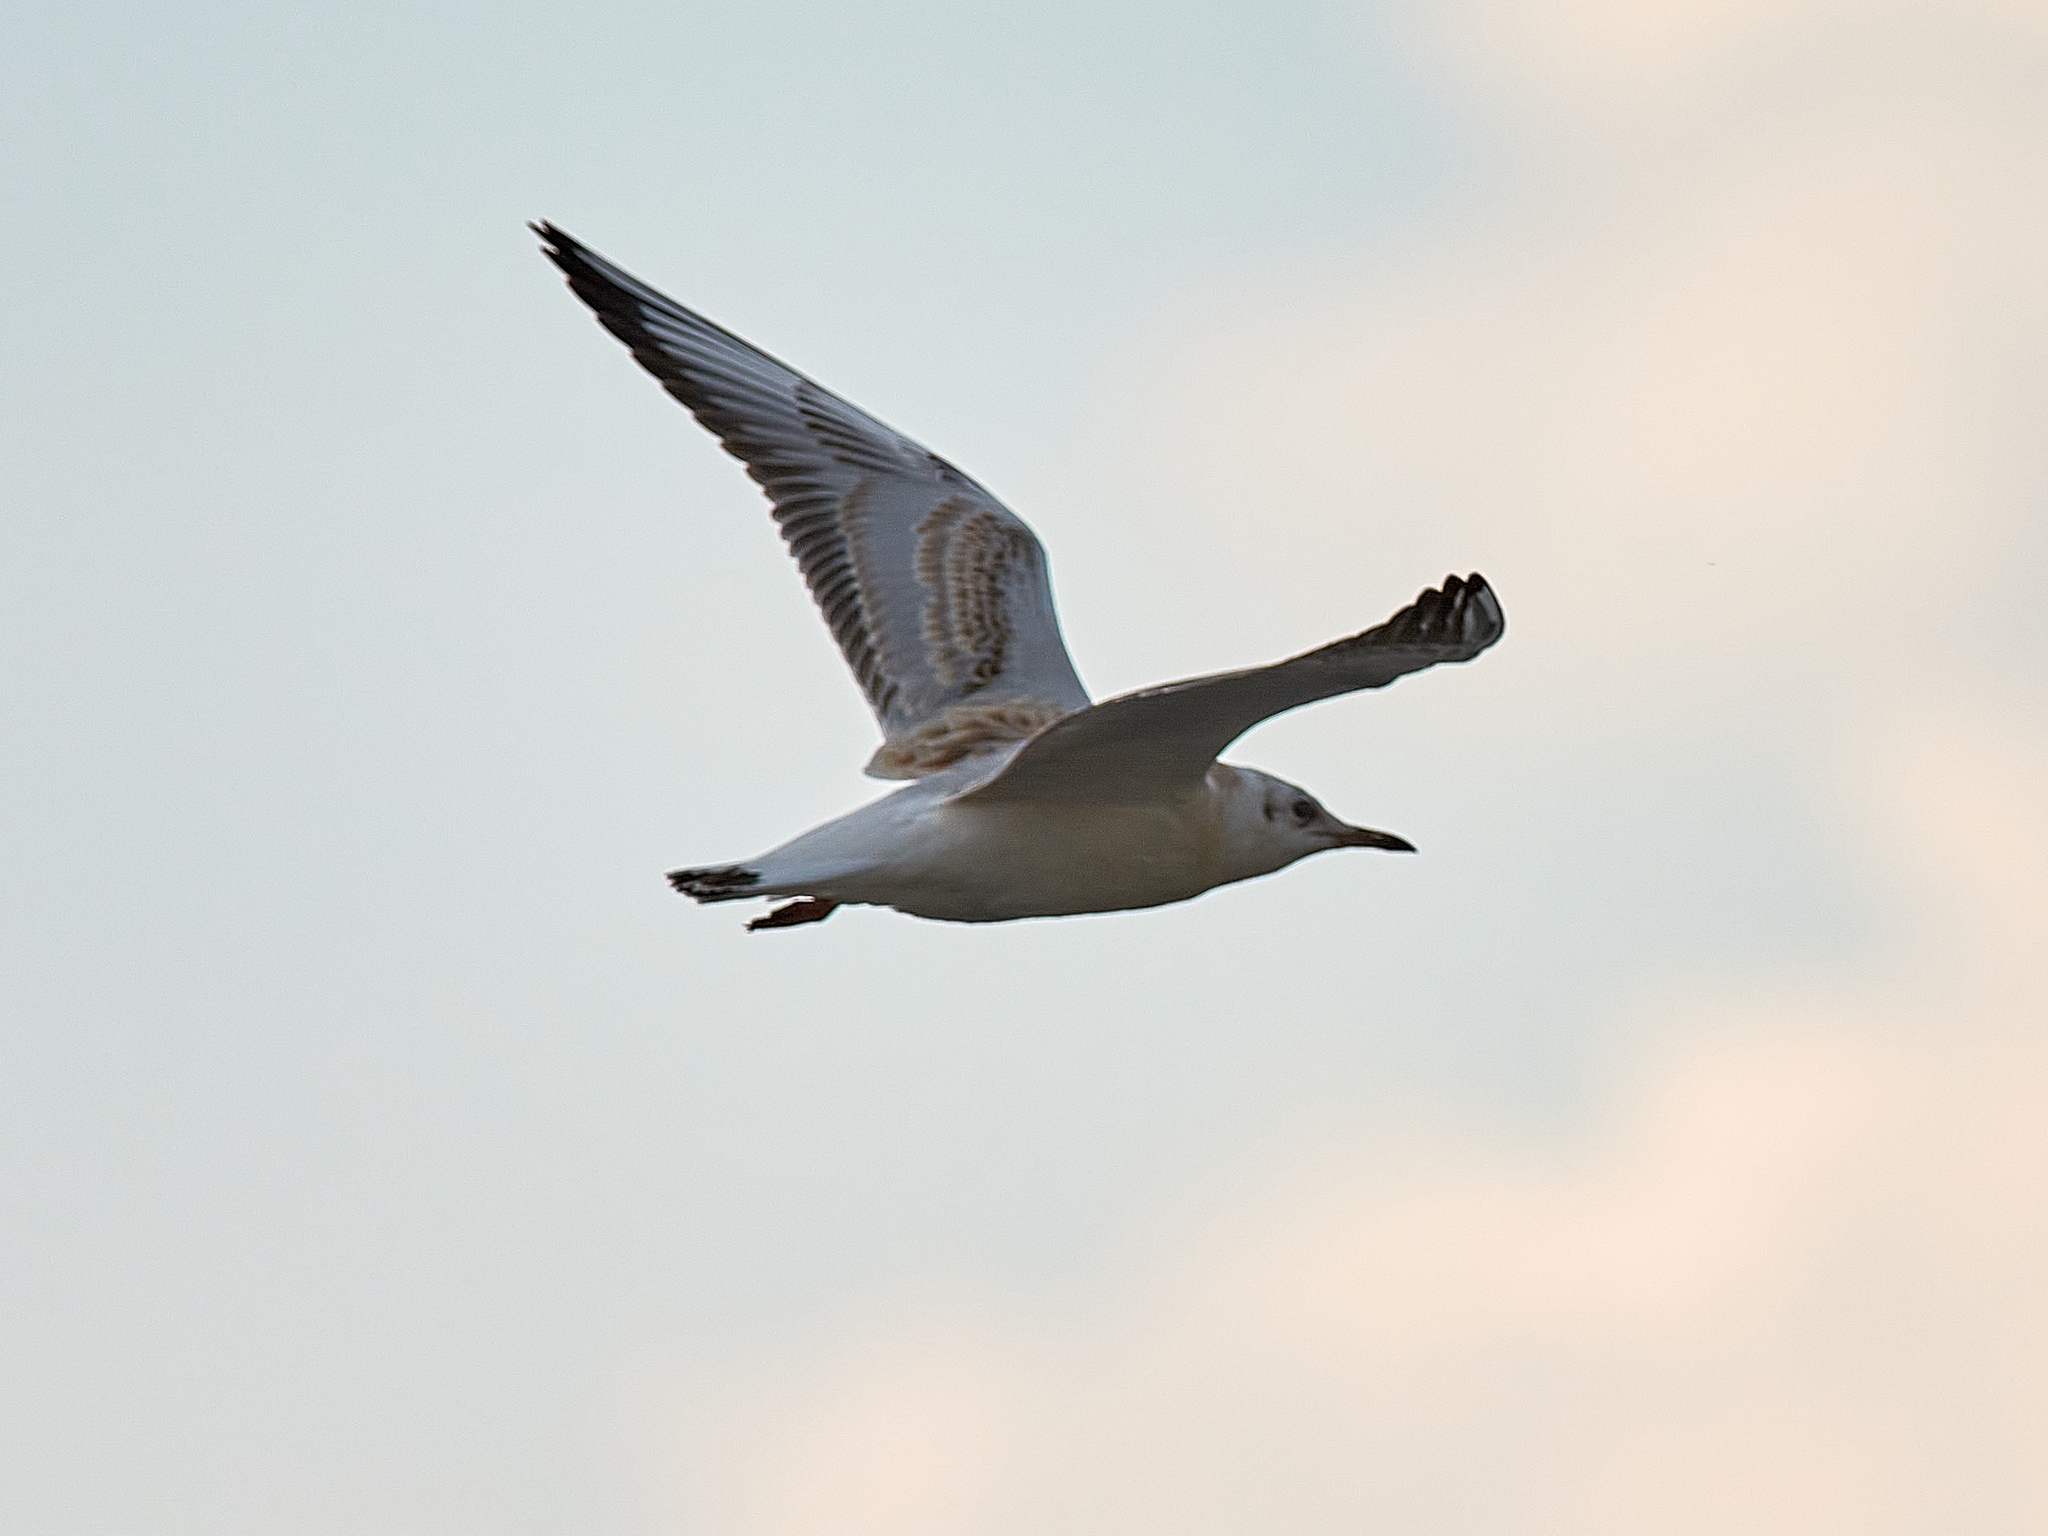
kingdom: Animalia
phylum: Chordata
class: Aves
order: Charadriiformes
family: Laridae
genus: Chroicocephalus
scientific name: Chroicocephalus ridibundus
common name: Black-headed gull
